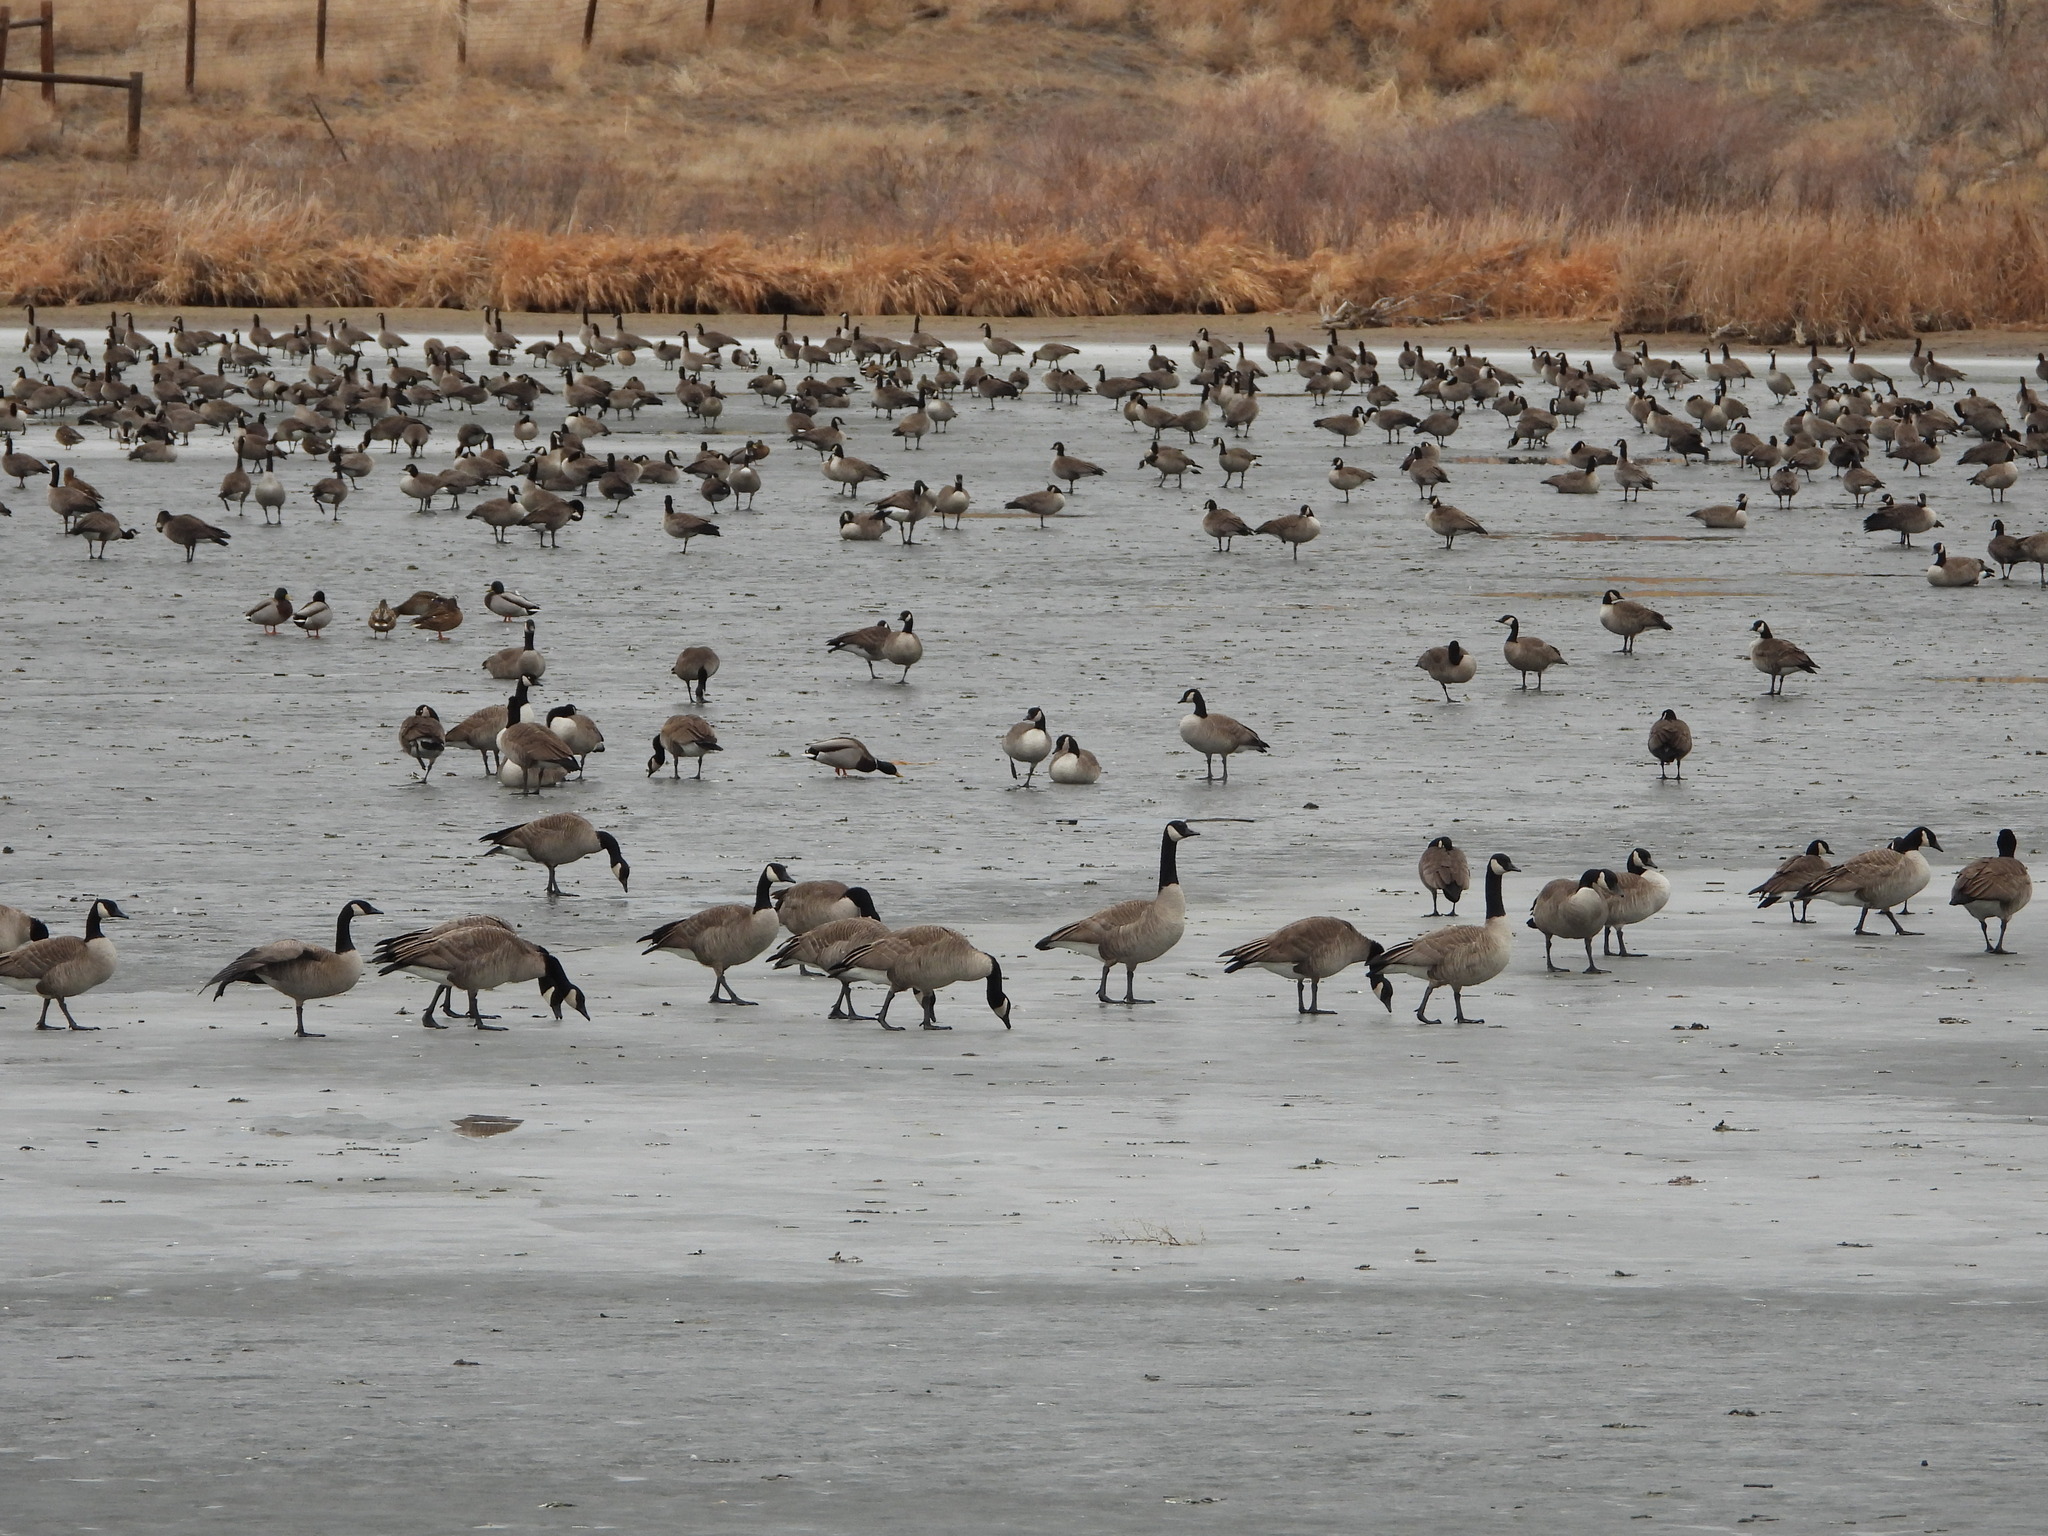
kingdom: Animalia
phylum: Chordata
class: Aves
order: Anseriformes
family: Anatidae
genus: Branta
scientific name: Branta canadensis
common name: Canada goose
